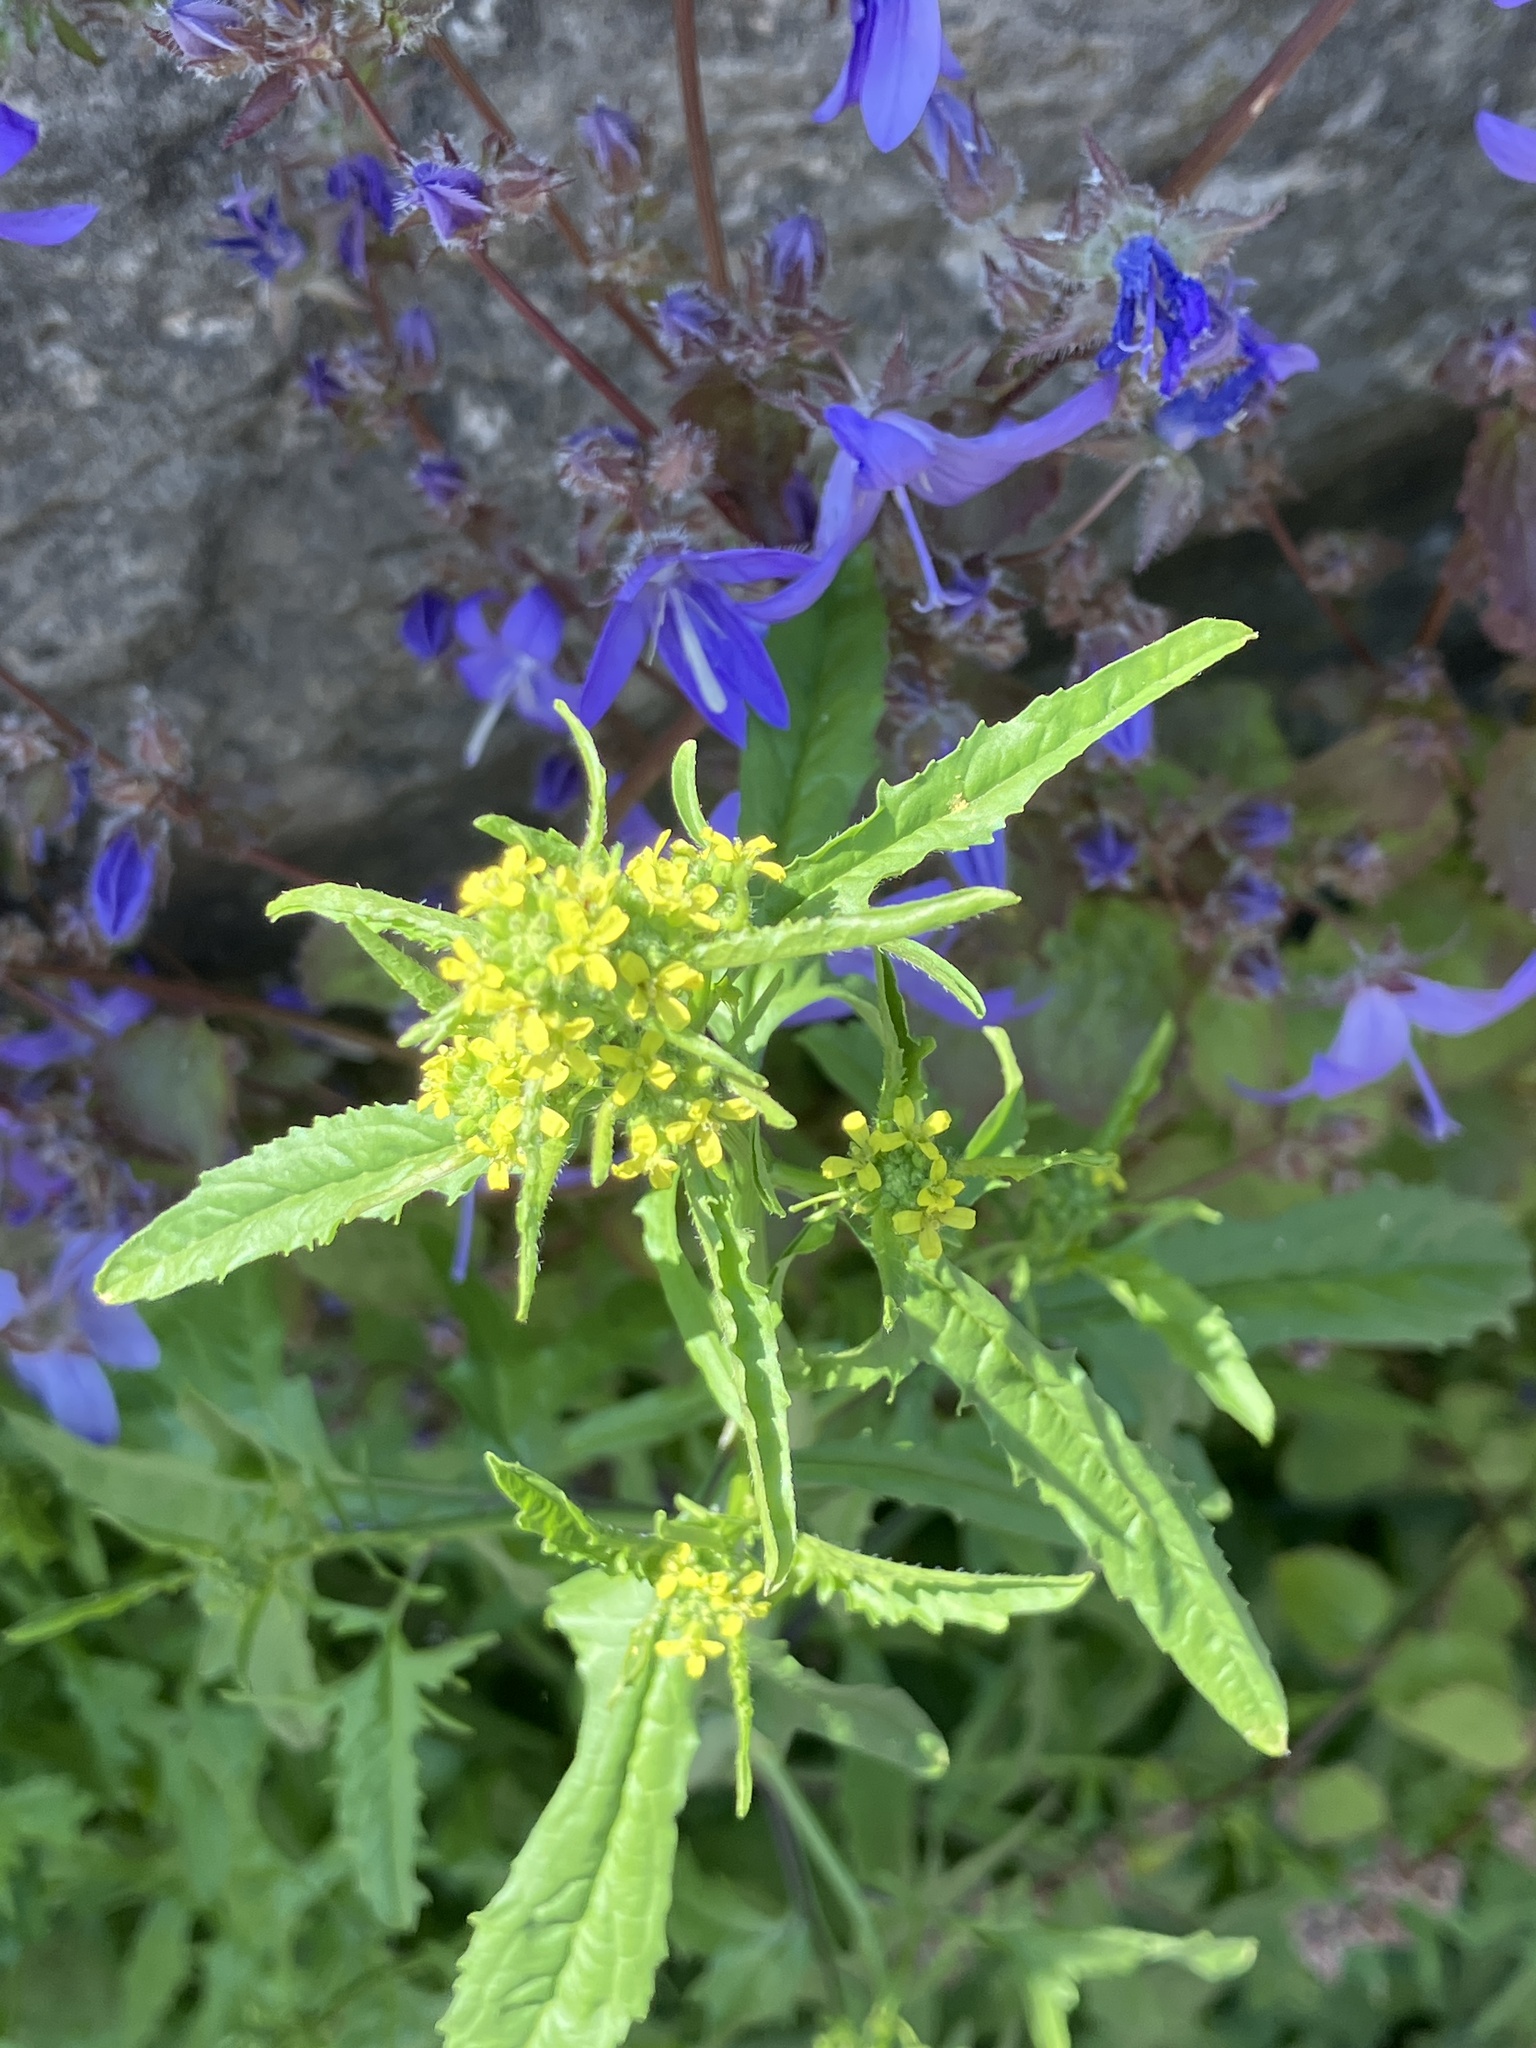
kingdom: Plantae
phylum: Tracheophyta
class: Magnoliopsida
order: Brassicales
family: Brassicaceae
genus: Sisymbrium
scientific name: Sisymbrium officinale
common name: Hedge mustard
